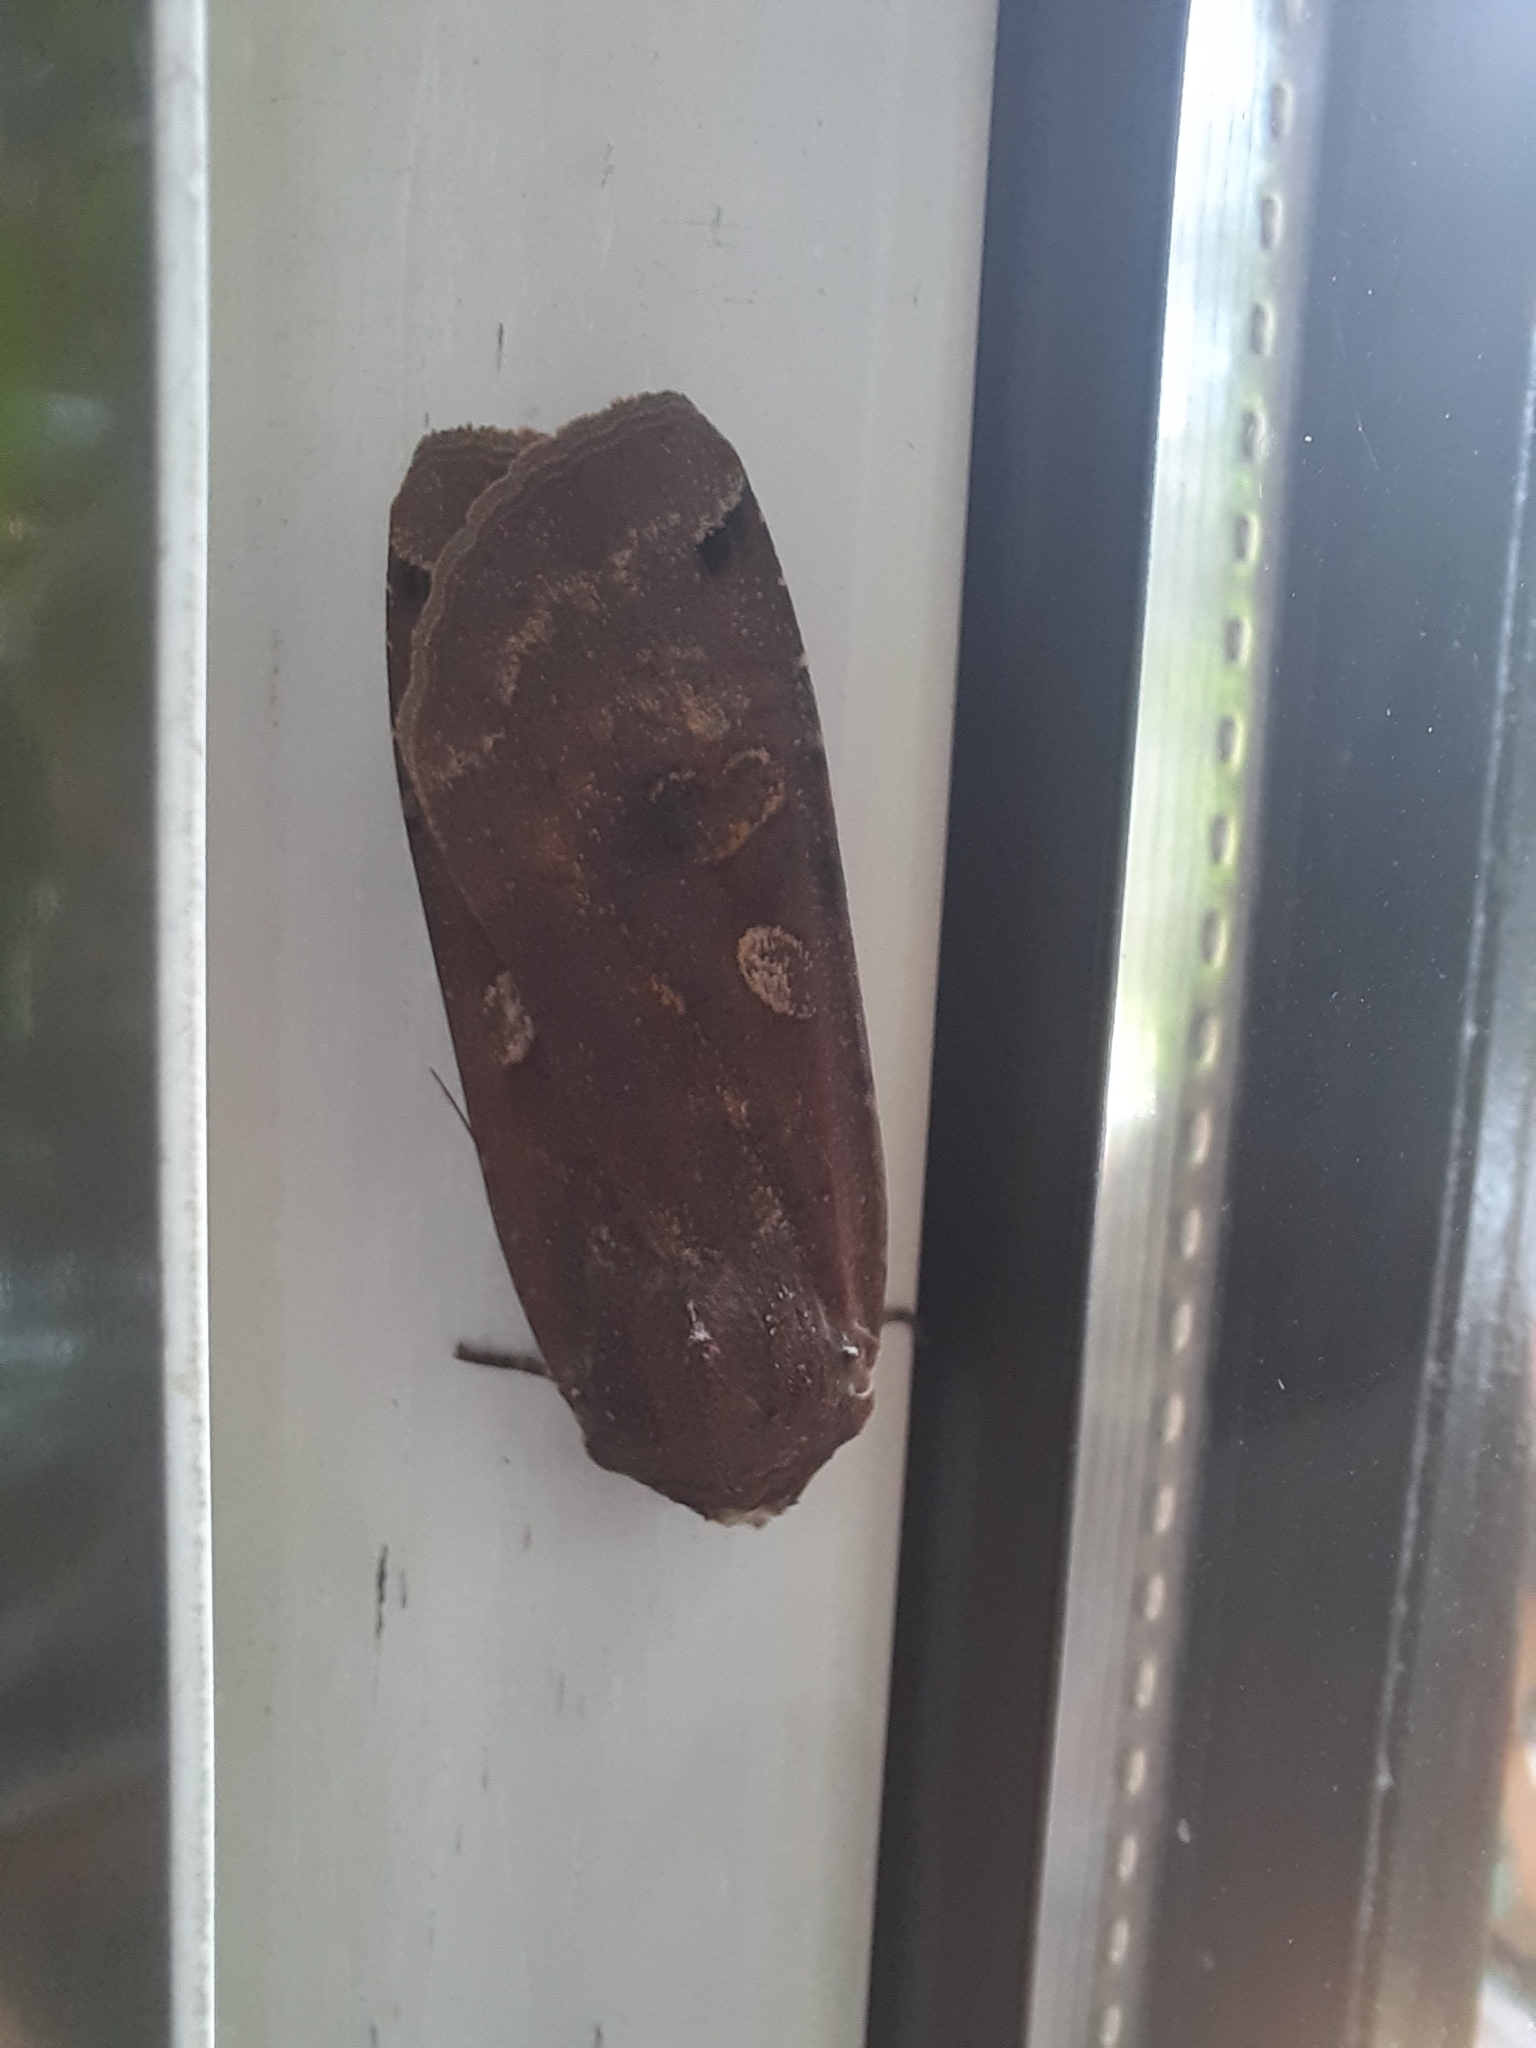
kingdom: Animalia
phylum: Arthropoda
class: Insecta
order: Lepidoptera
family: Noctuidae
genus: Noctua
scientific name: Noctua pronuba
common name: Large yellow underwing
